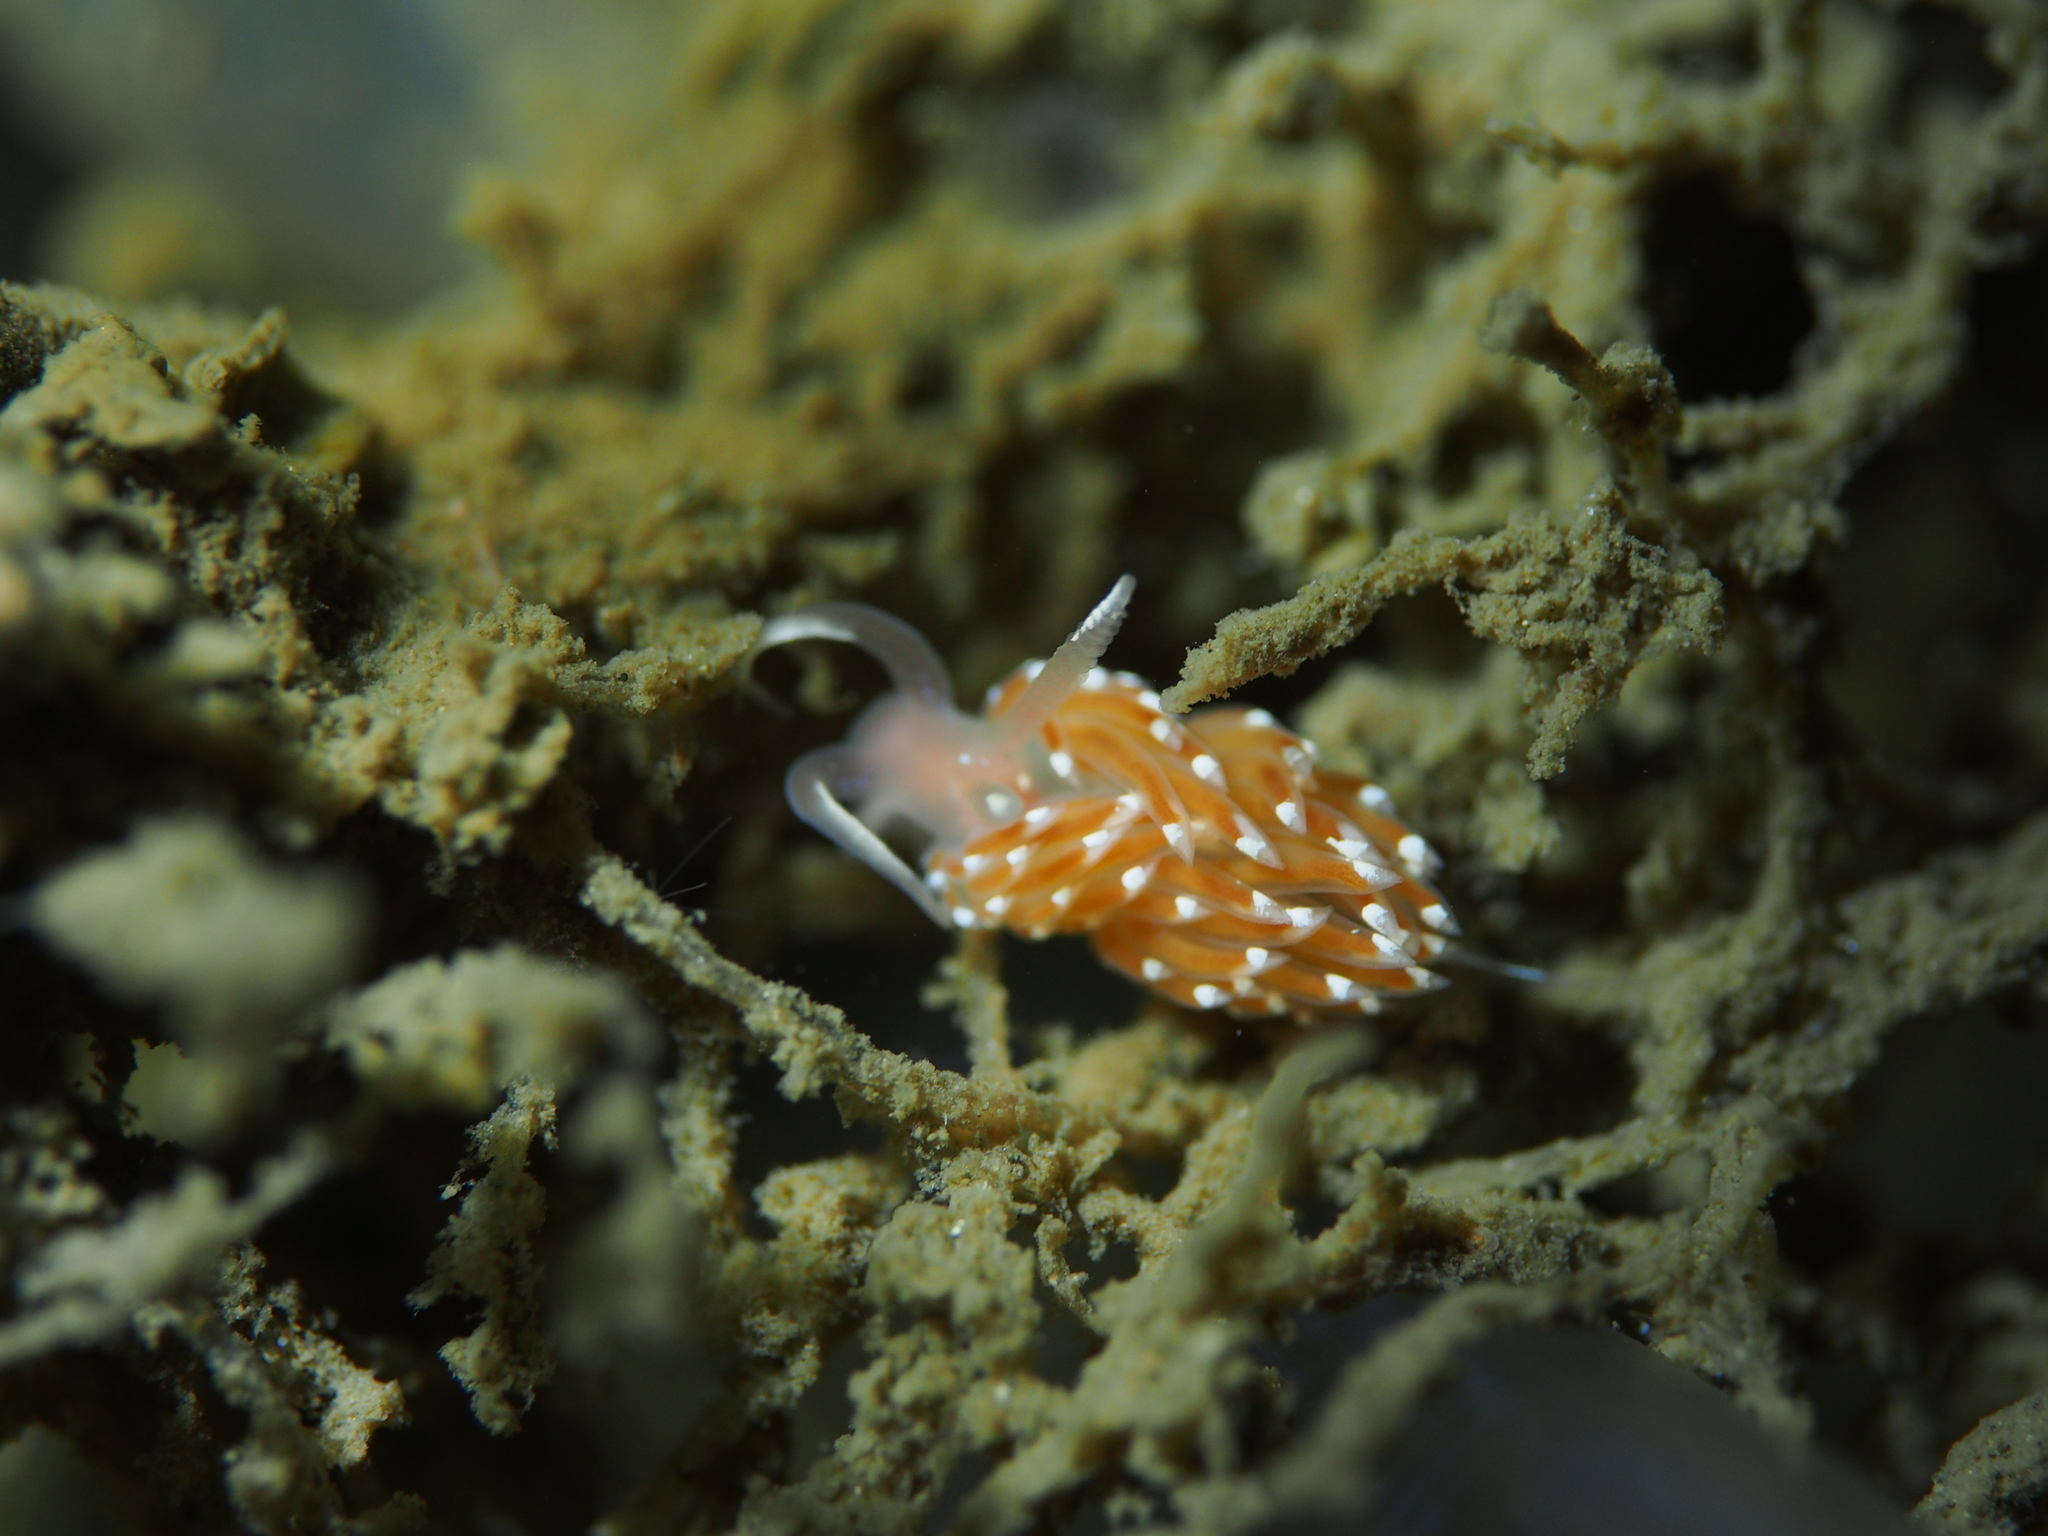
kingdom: Animalia
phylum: Mollusca
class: Gastropoda
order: Nudibranchia
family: Facelinidae
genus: Facelina
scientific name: Facelina bostoniensis
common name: Boston facelina
